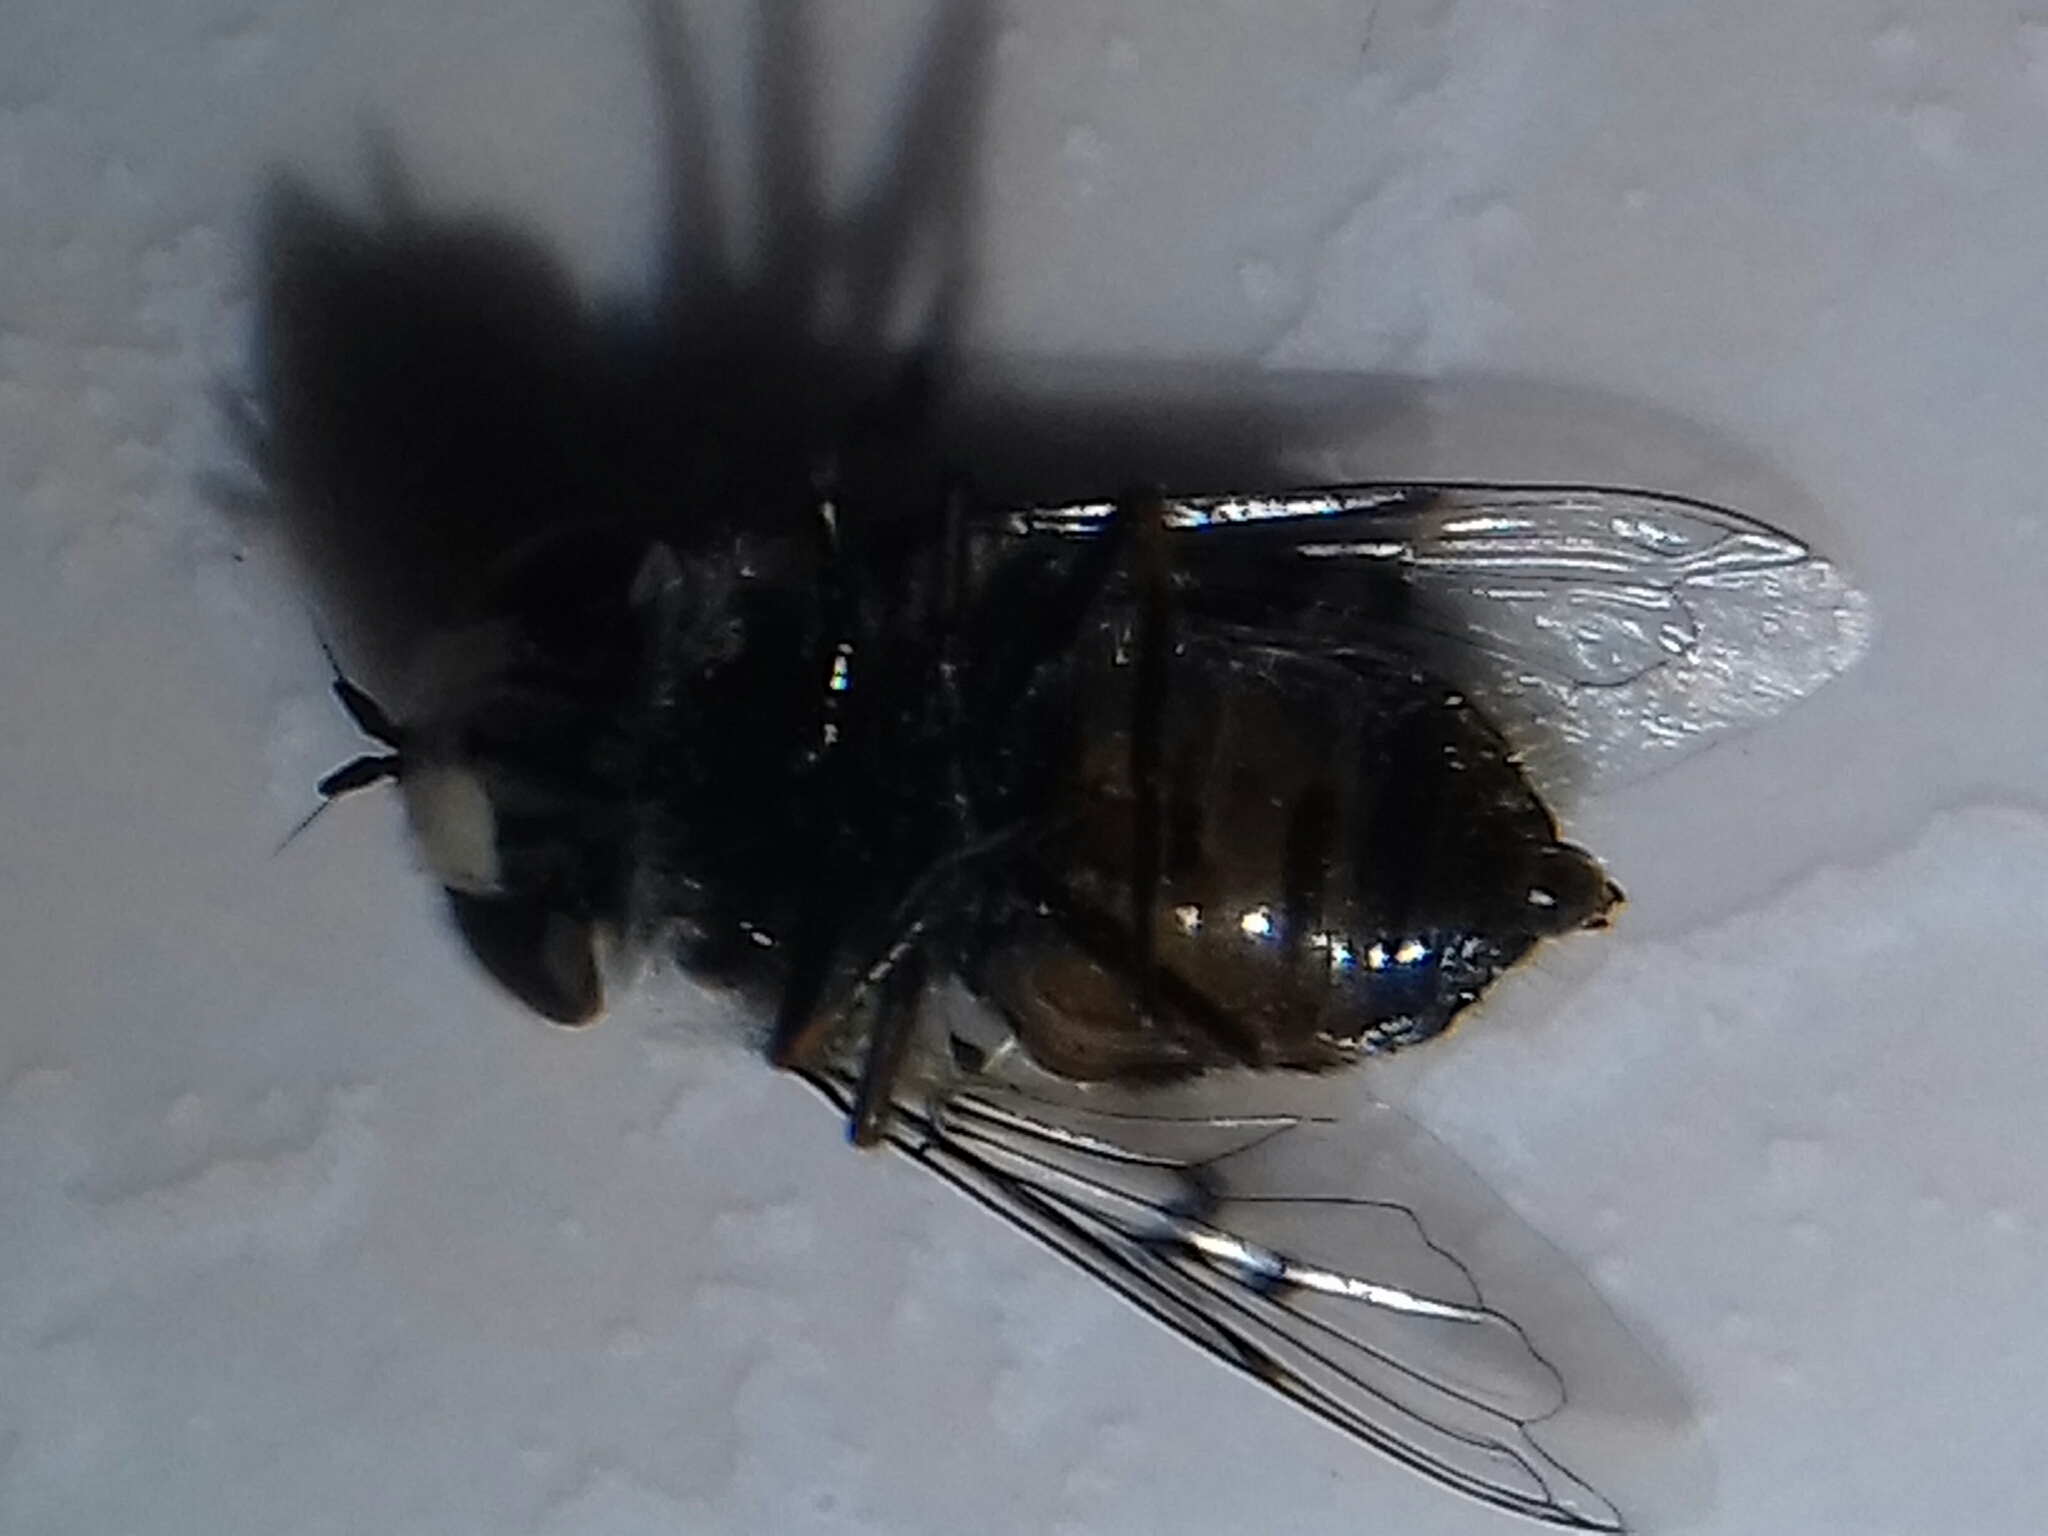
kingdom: Animalia
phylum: Arthropoda
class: Insecta
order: Diptera
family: Syrphidae
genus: Copestylum
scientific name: Copestylum avidum
